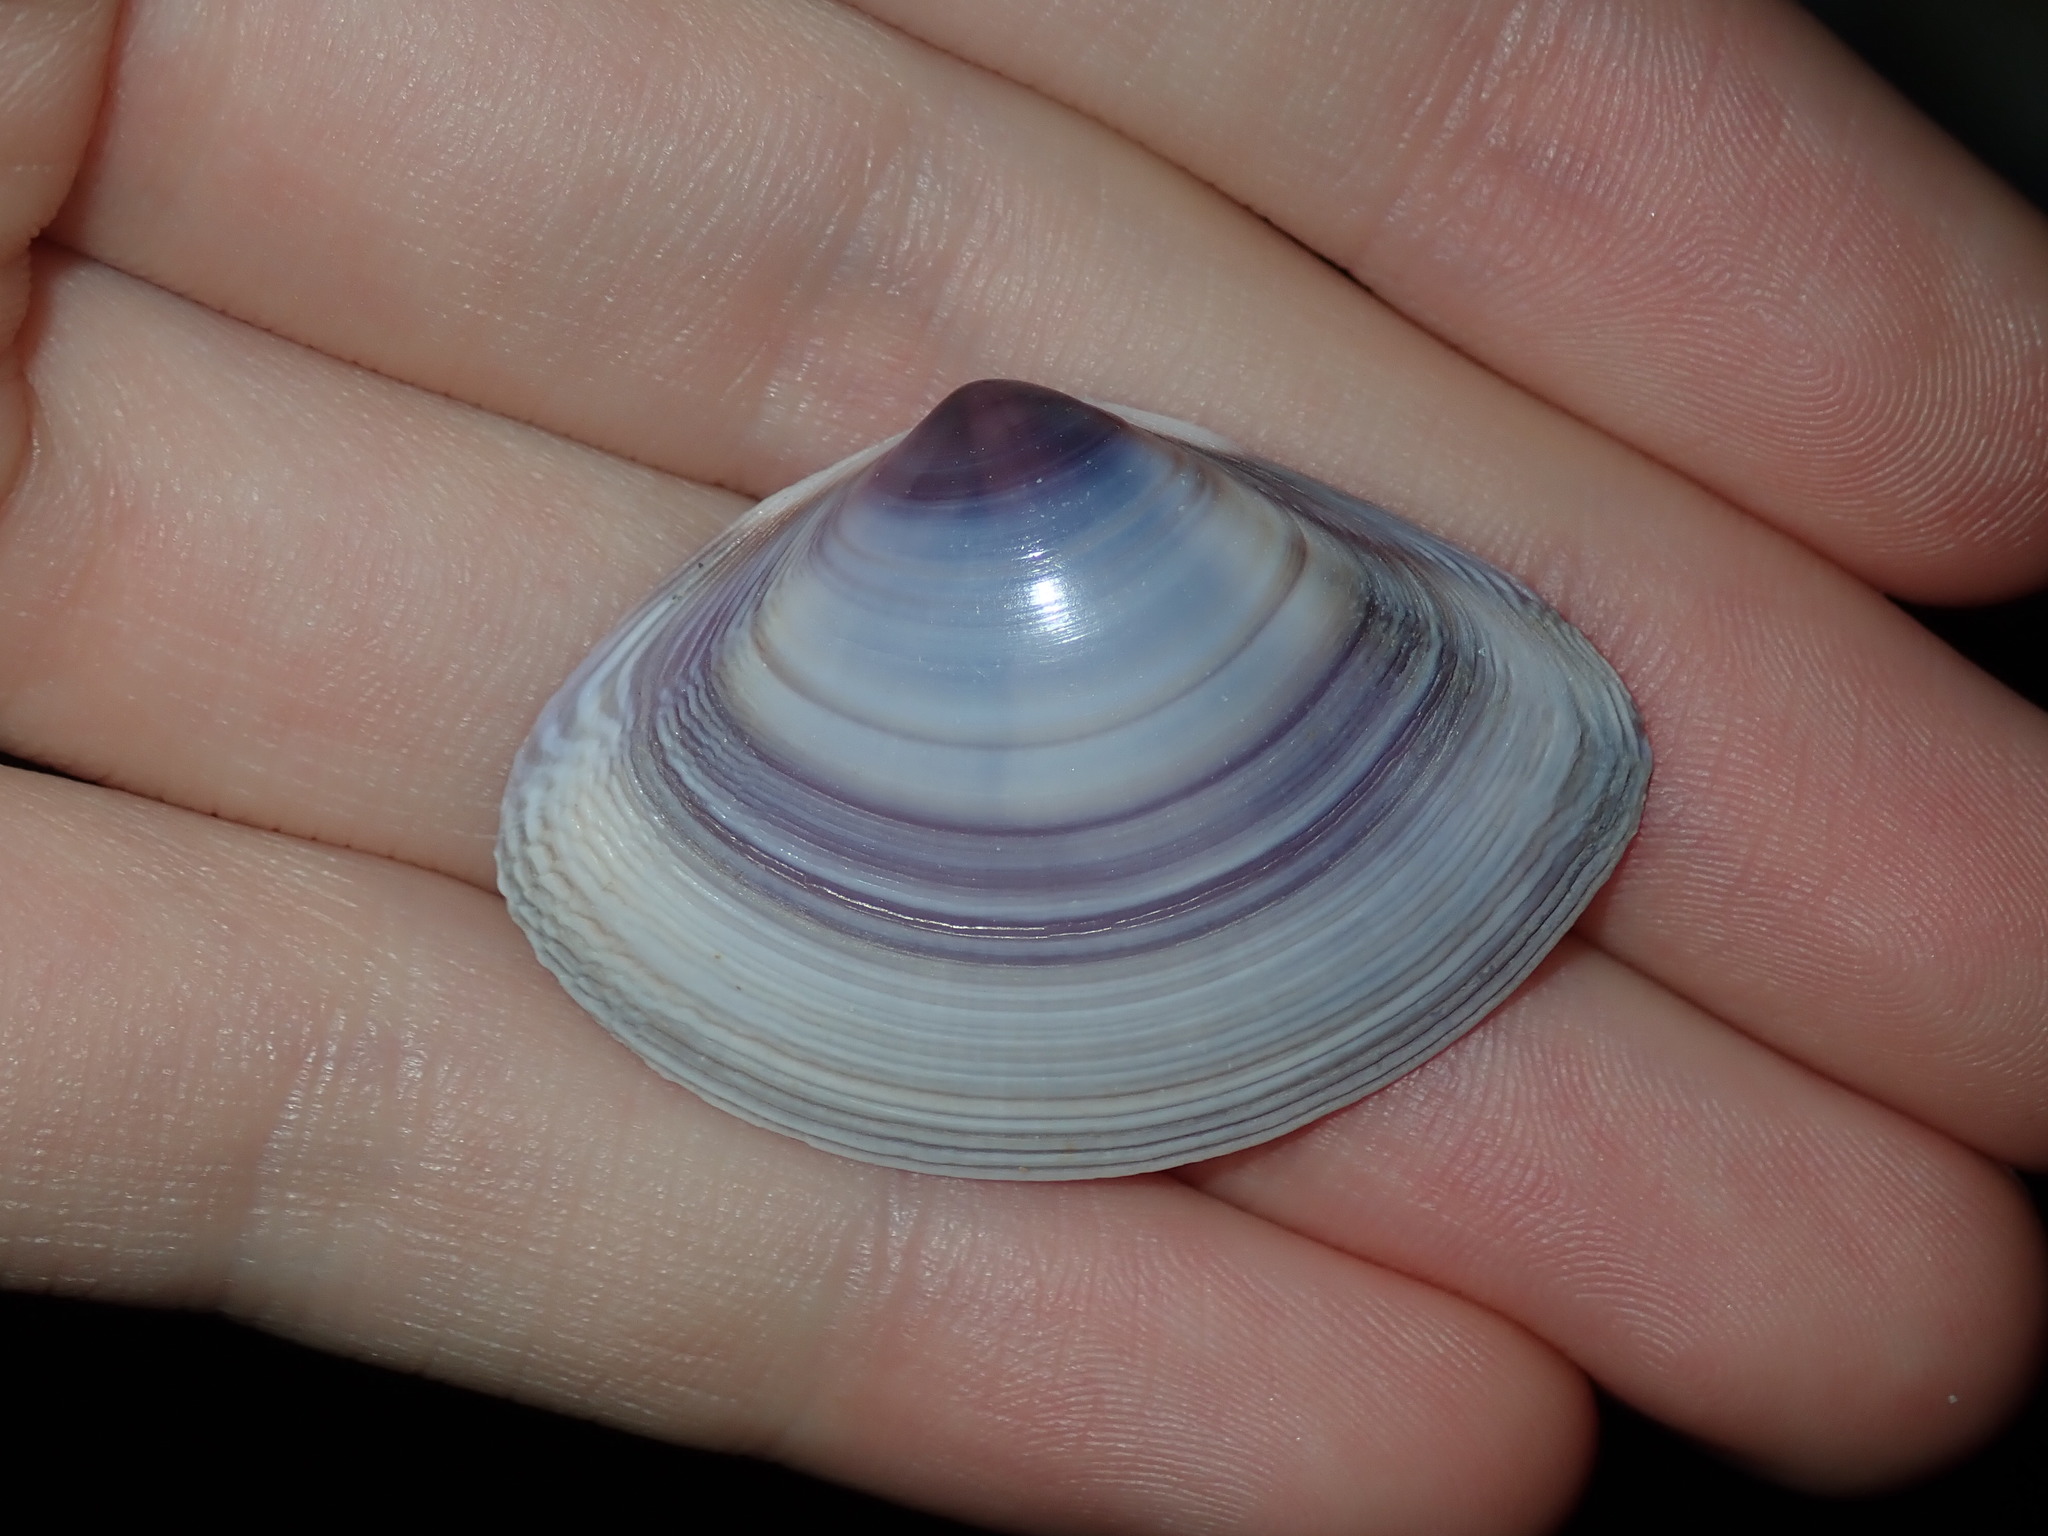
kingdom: Animalia
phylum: Mollusca
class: Bivalvia
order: Venerida
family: Mactridae
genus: Austromactra
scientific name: Austromactra contraria
